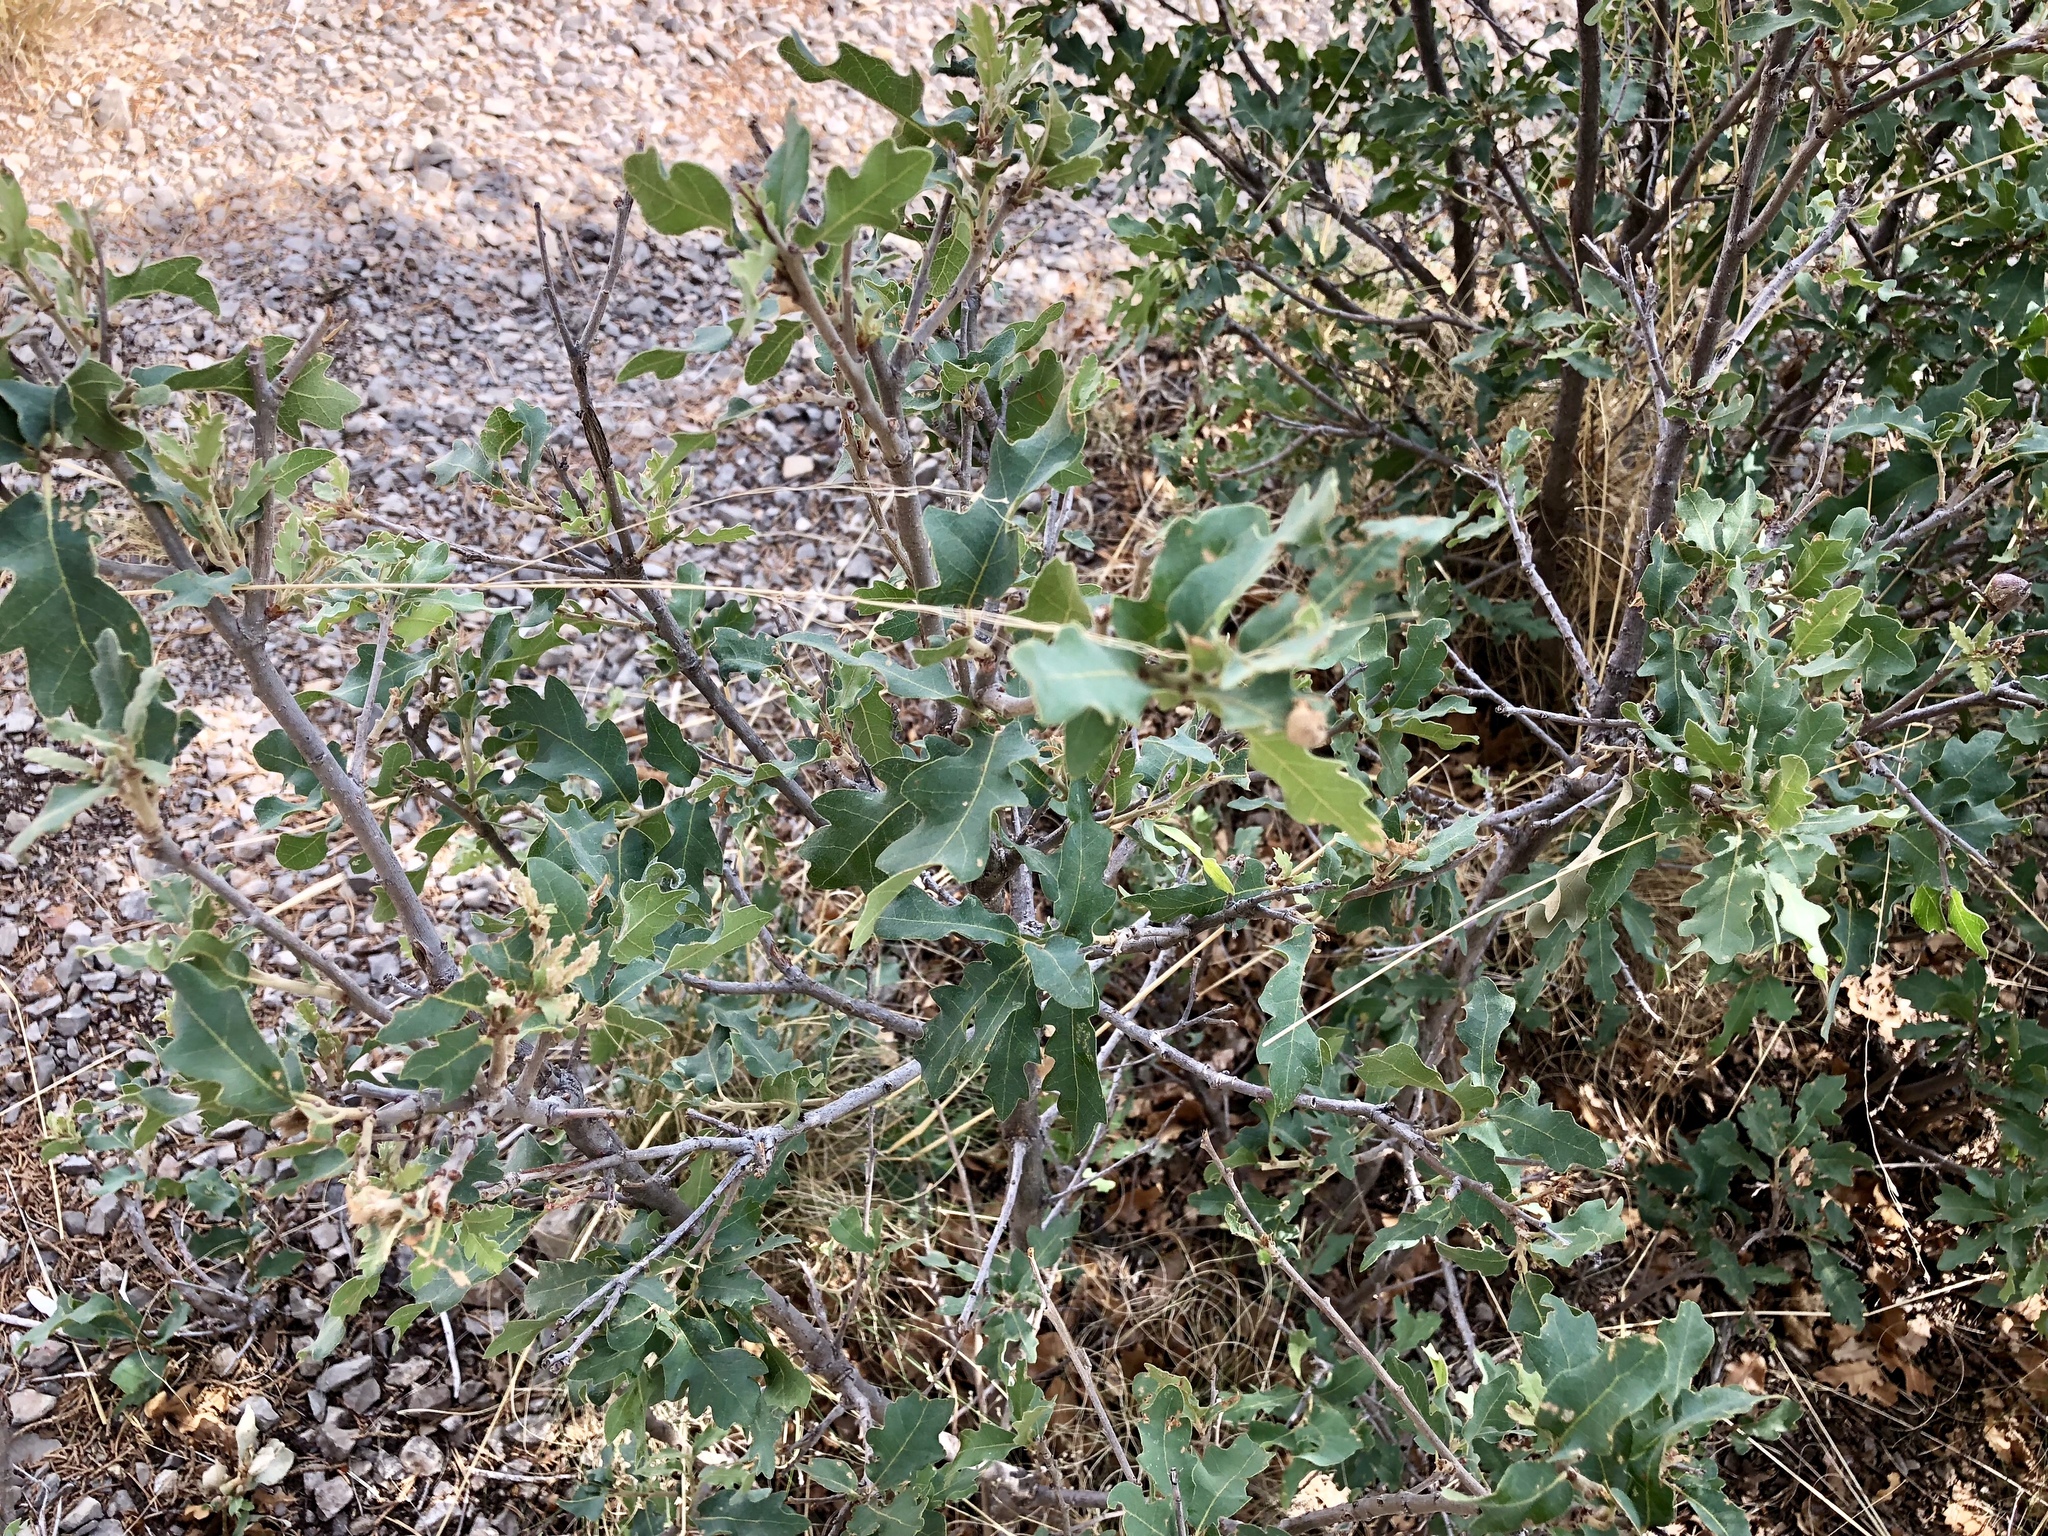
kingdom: Plantae
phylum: Tracheophyta
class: Magnoliopsida
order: Fagales
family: Fagaceae
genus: Quercus
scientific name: Quercus undulata
